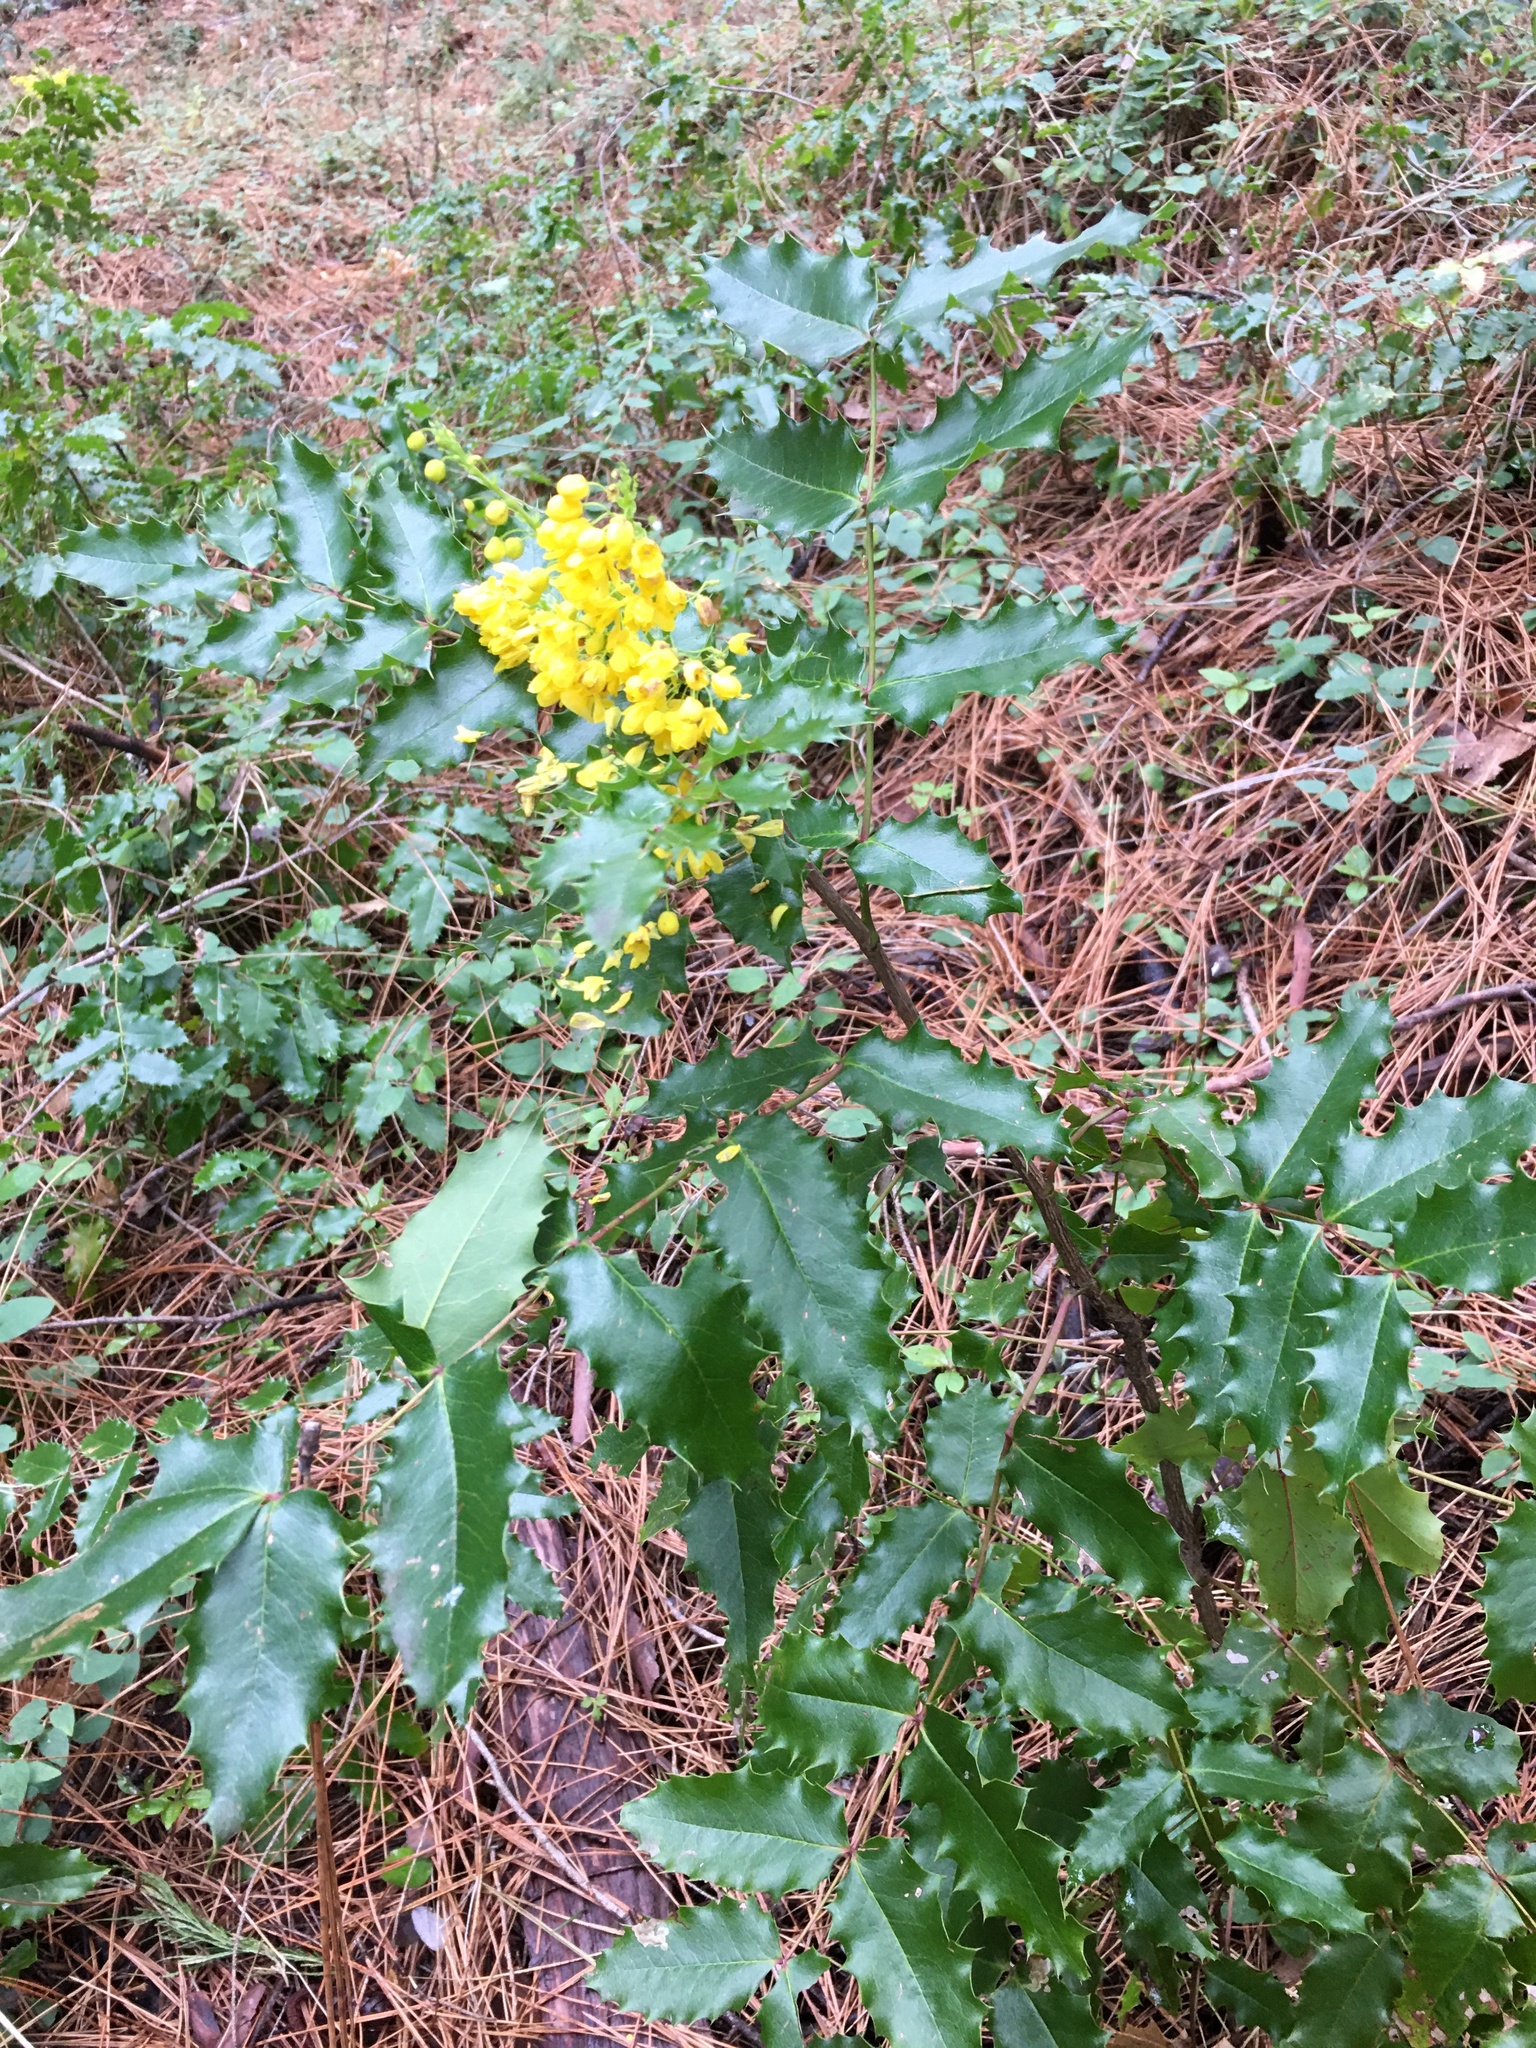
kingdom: Plantae
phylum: Tracheophyta
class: Magnoliopsida
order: Ranunculales
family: Berberidaceae
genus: Mahonia
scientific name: Mahonia aquifolium
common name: Oregon-grape
